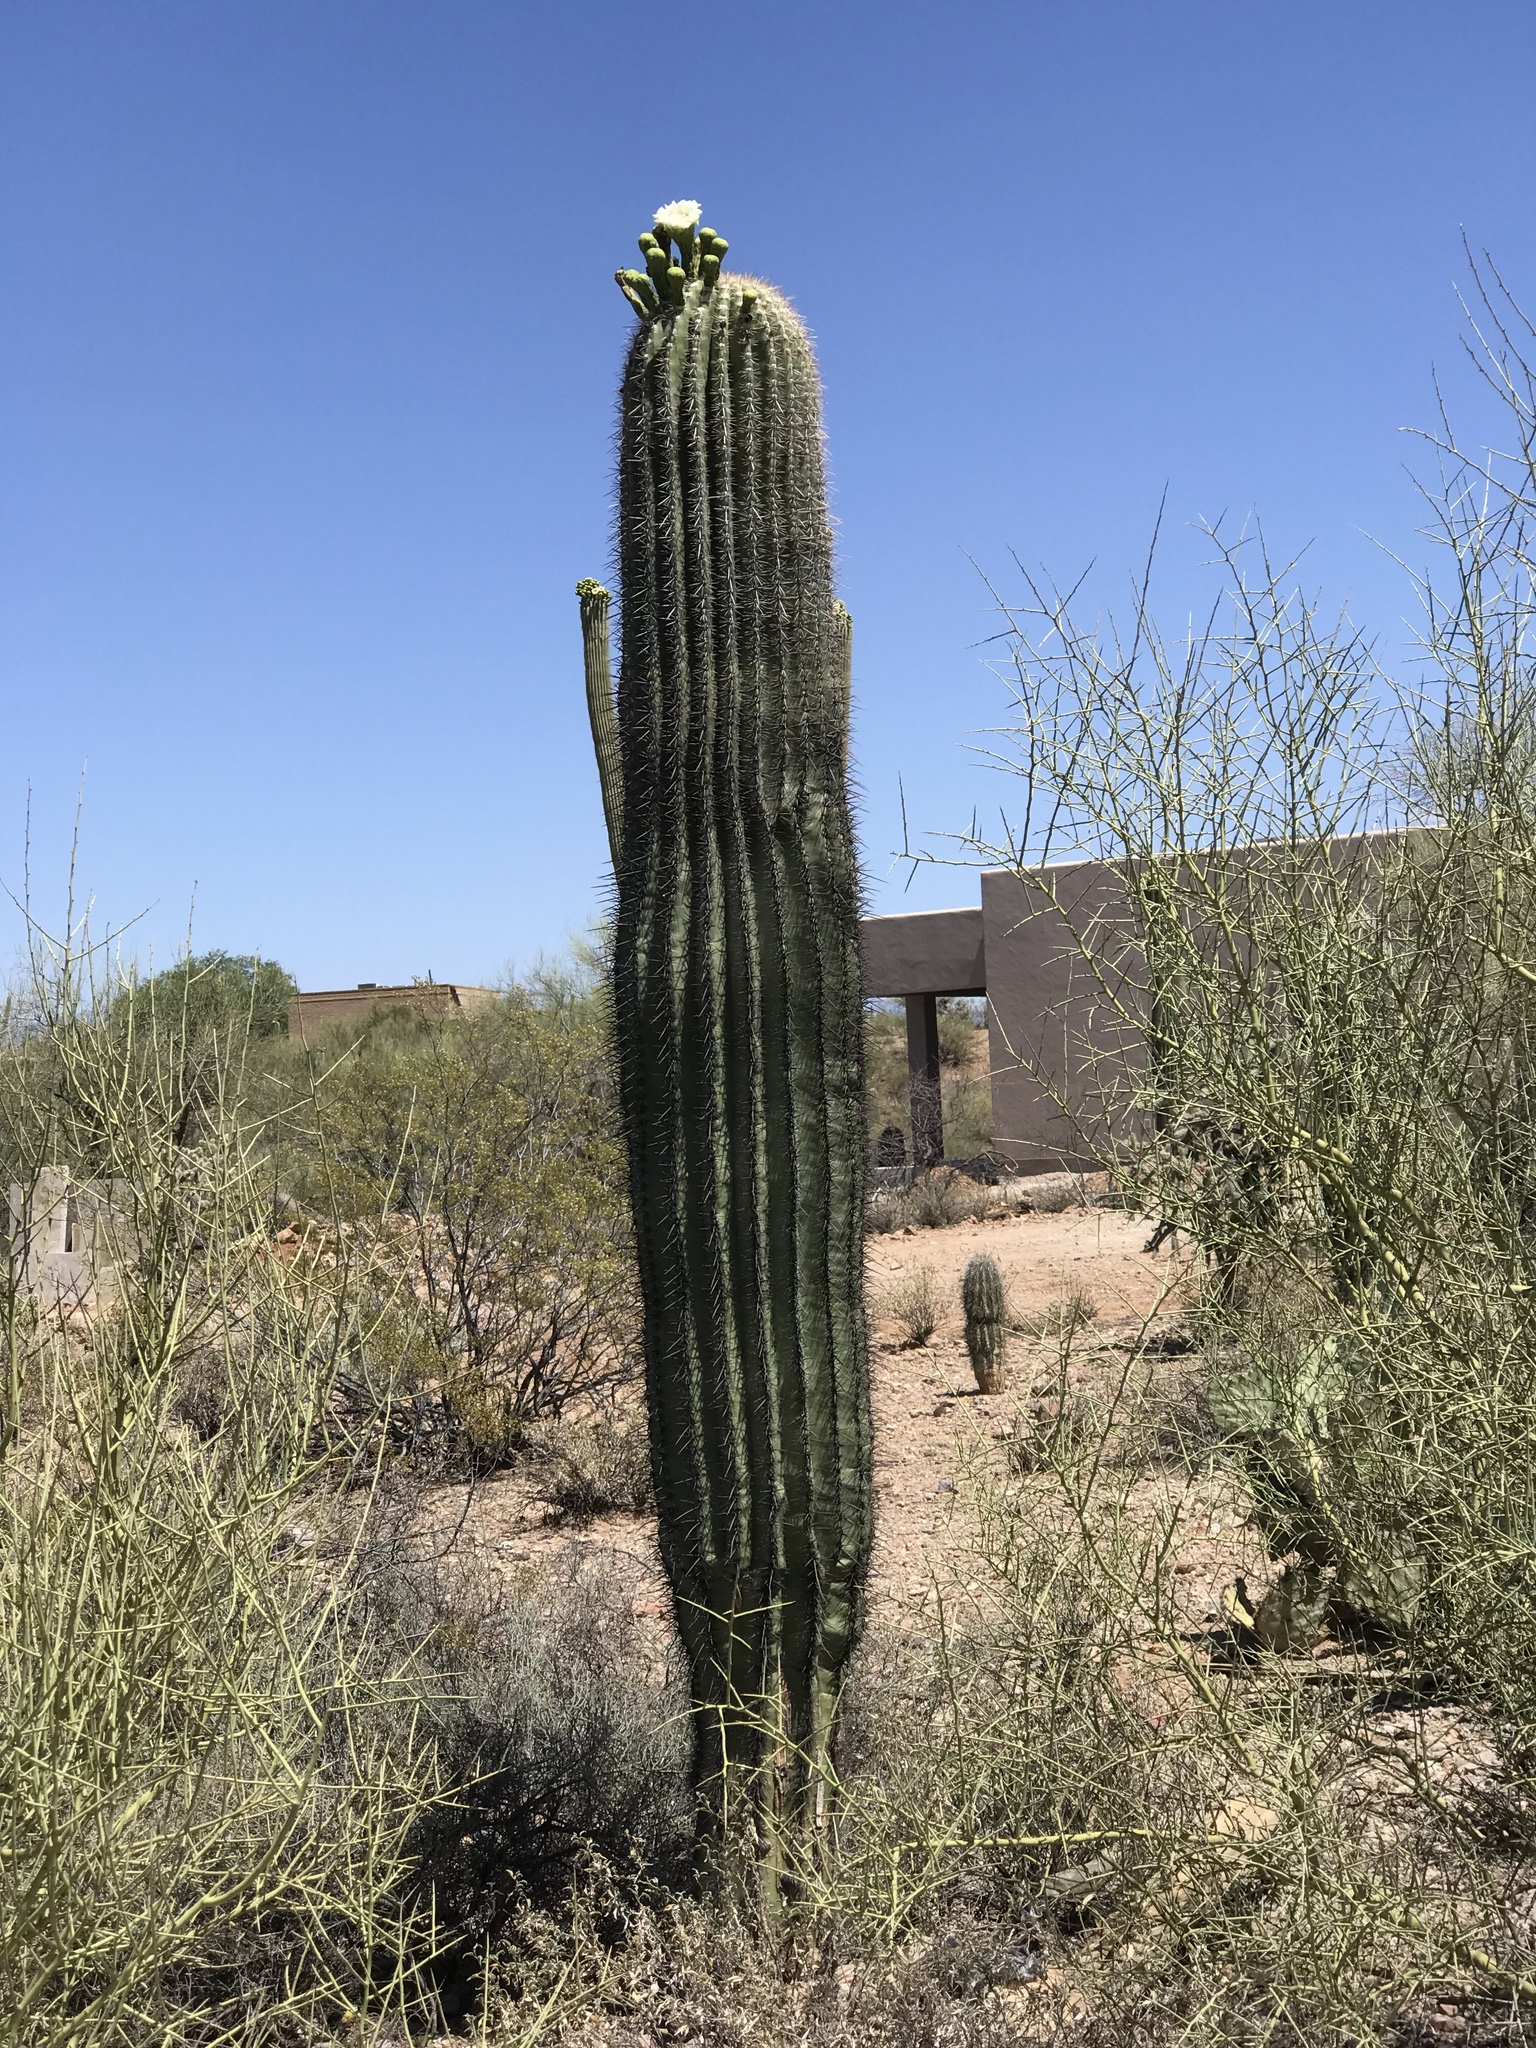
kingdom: Plantae
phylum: Tracheophyta
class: Magnoliopsida
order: Caryophyllales
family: Cactaceae
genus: Carnegiea
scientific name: Carnegiea gigantea
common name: Saguaro
